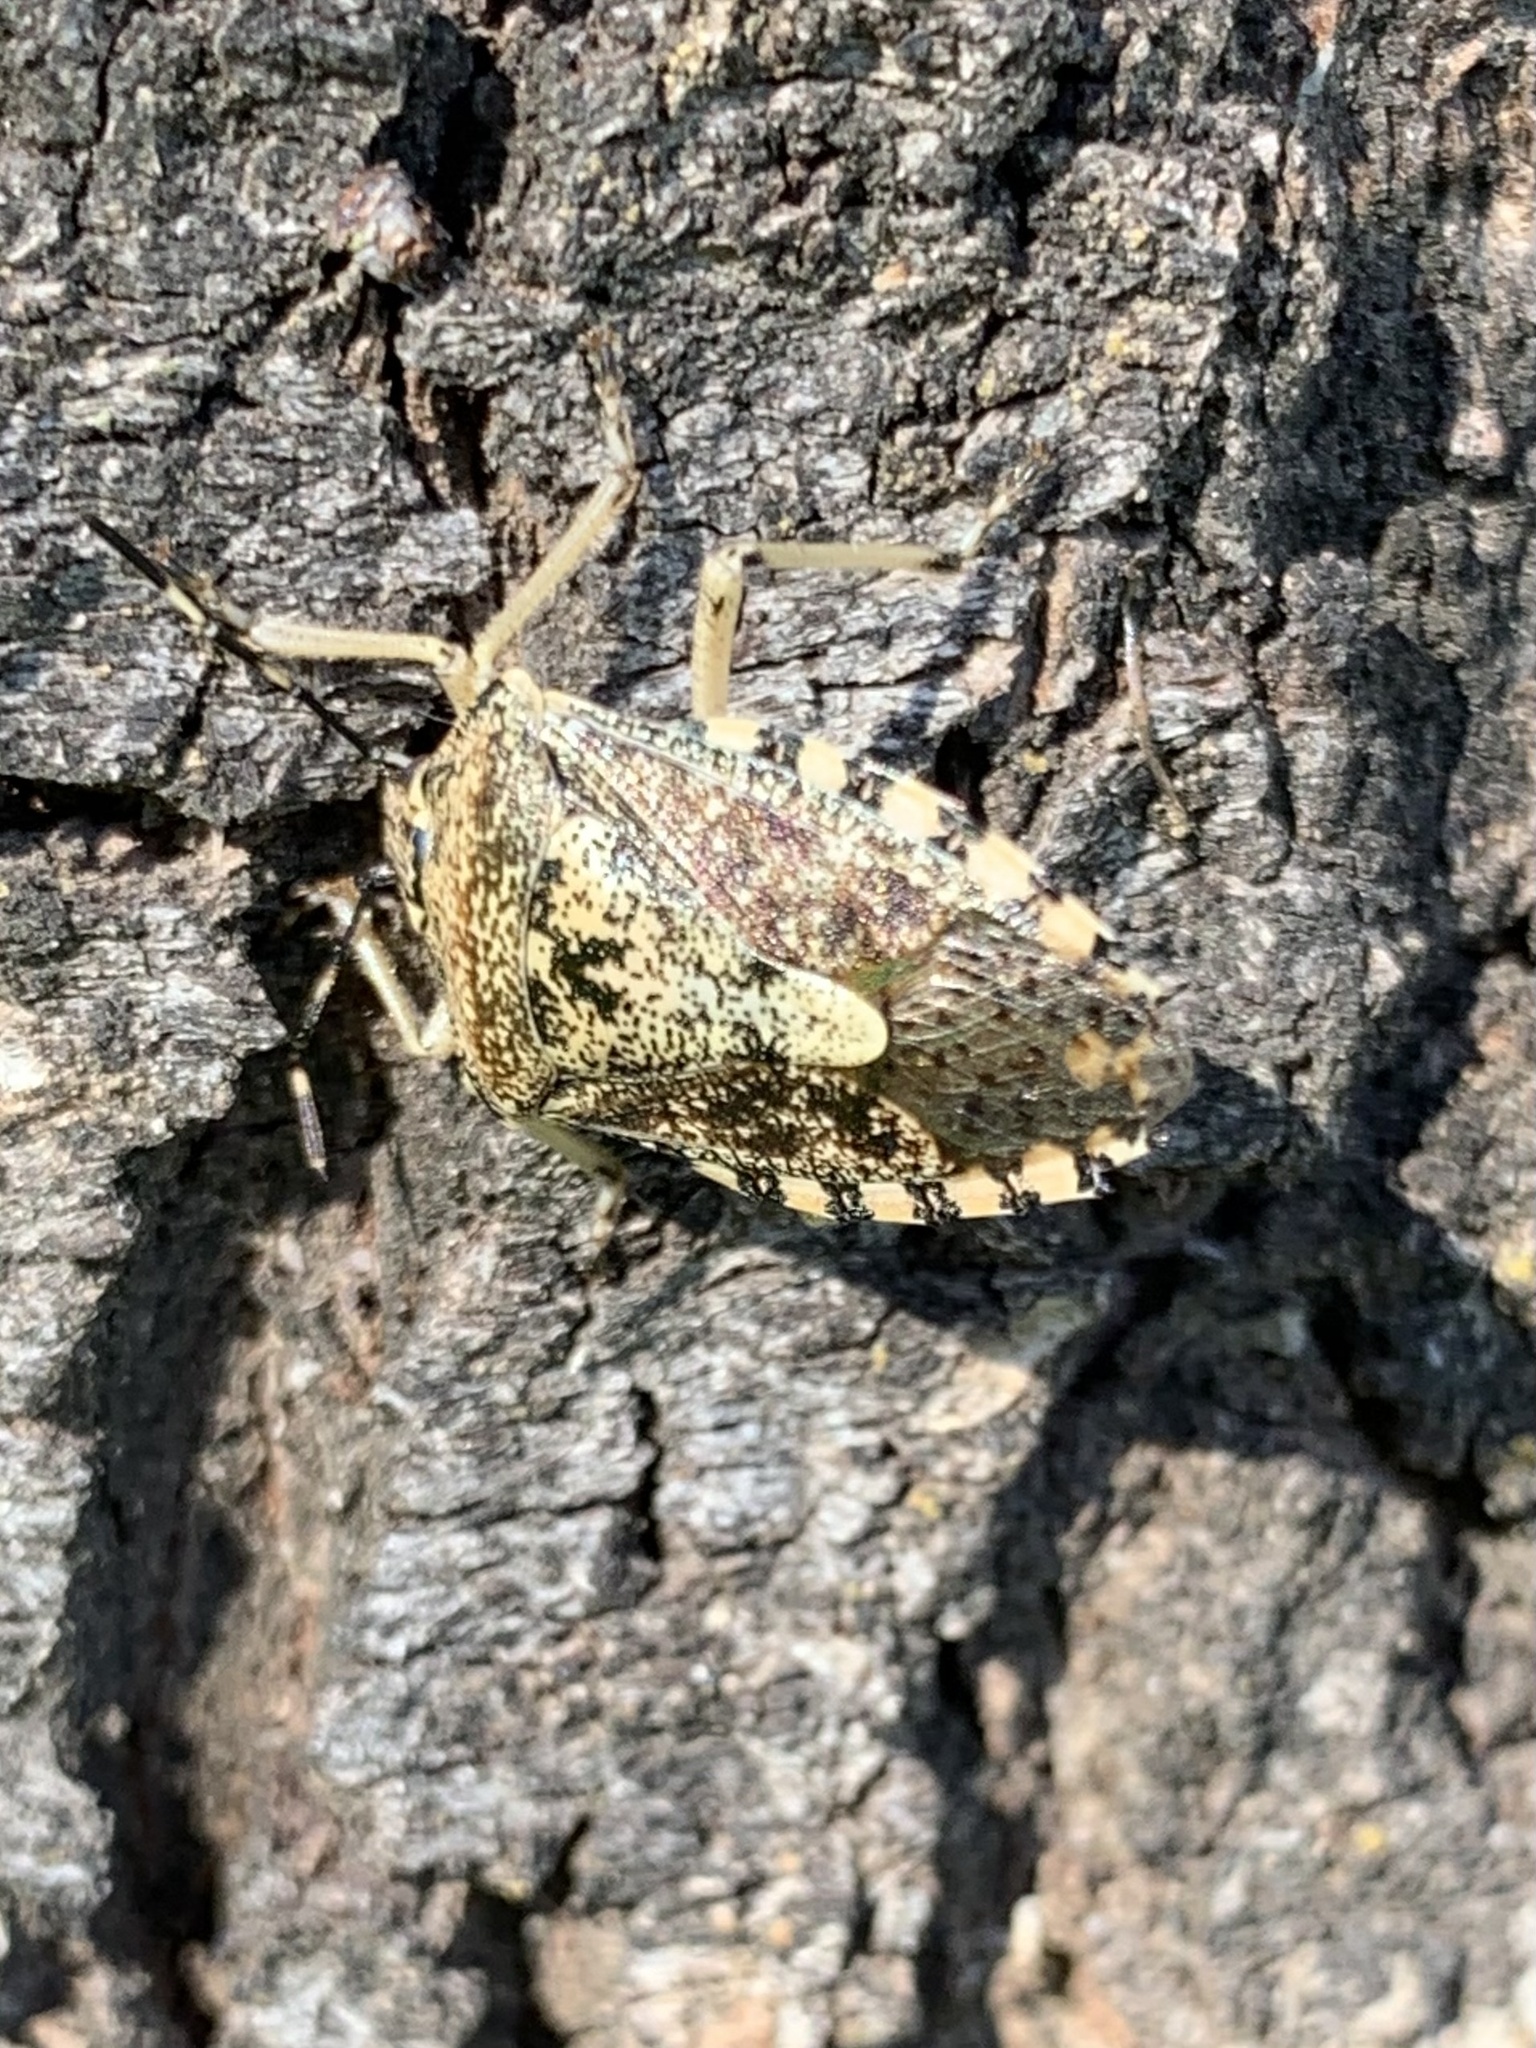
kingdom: Animalia
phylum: Arthropoda
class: Insecta
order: Hemiptera
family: Pentatomidae
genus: Rhaphigaster
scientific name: Rhaphigaster nebulosa
